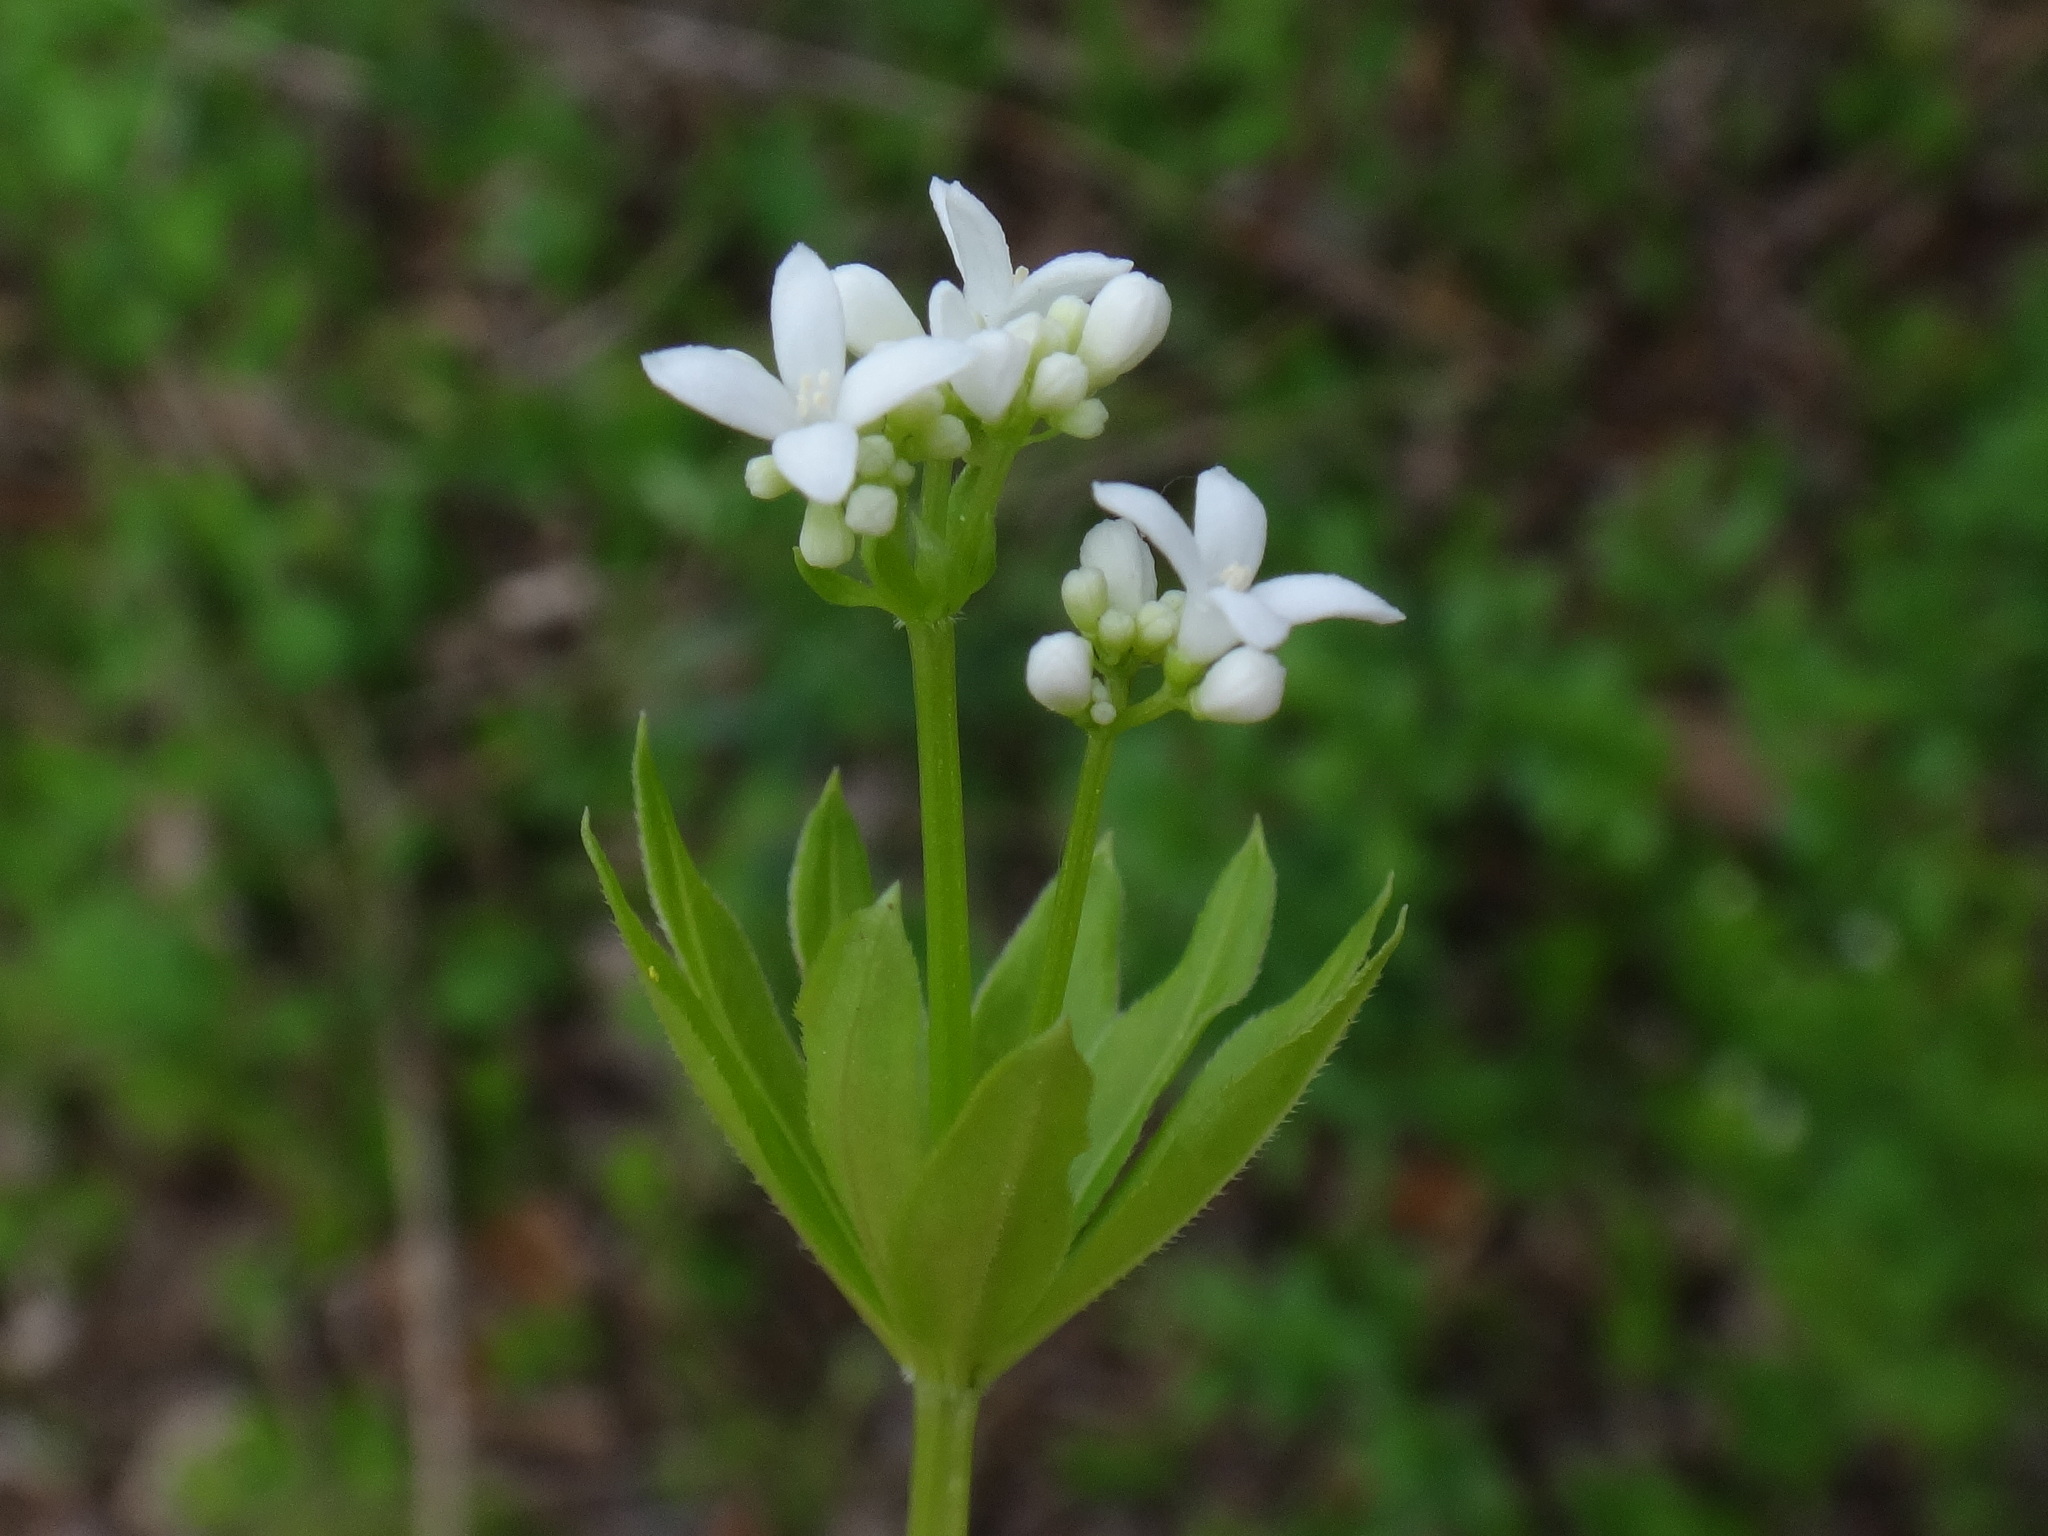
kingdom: Plantae
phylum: Tracheophyta
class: Magnoliopsida
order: Gentianales
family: Rubiaceae
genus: Galium
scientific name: Galium odoratum
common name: Sweet woodruff
